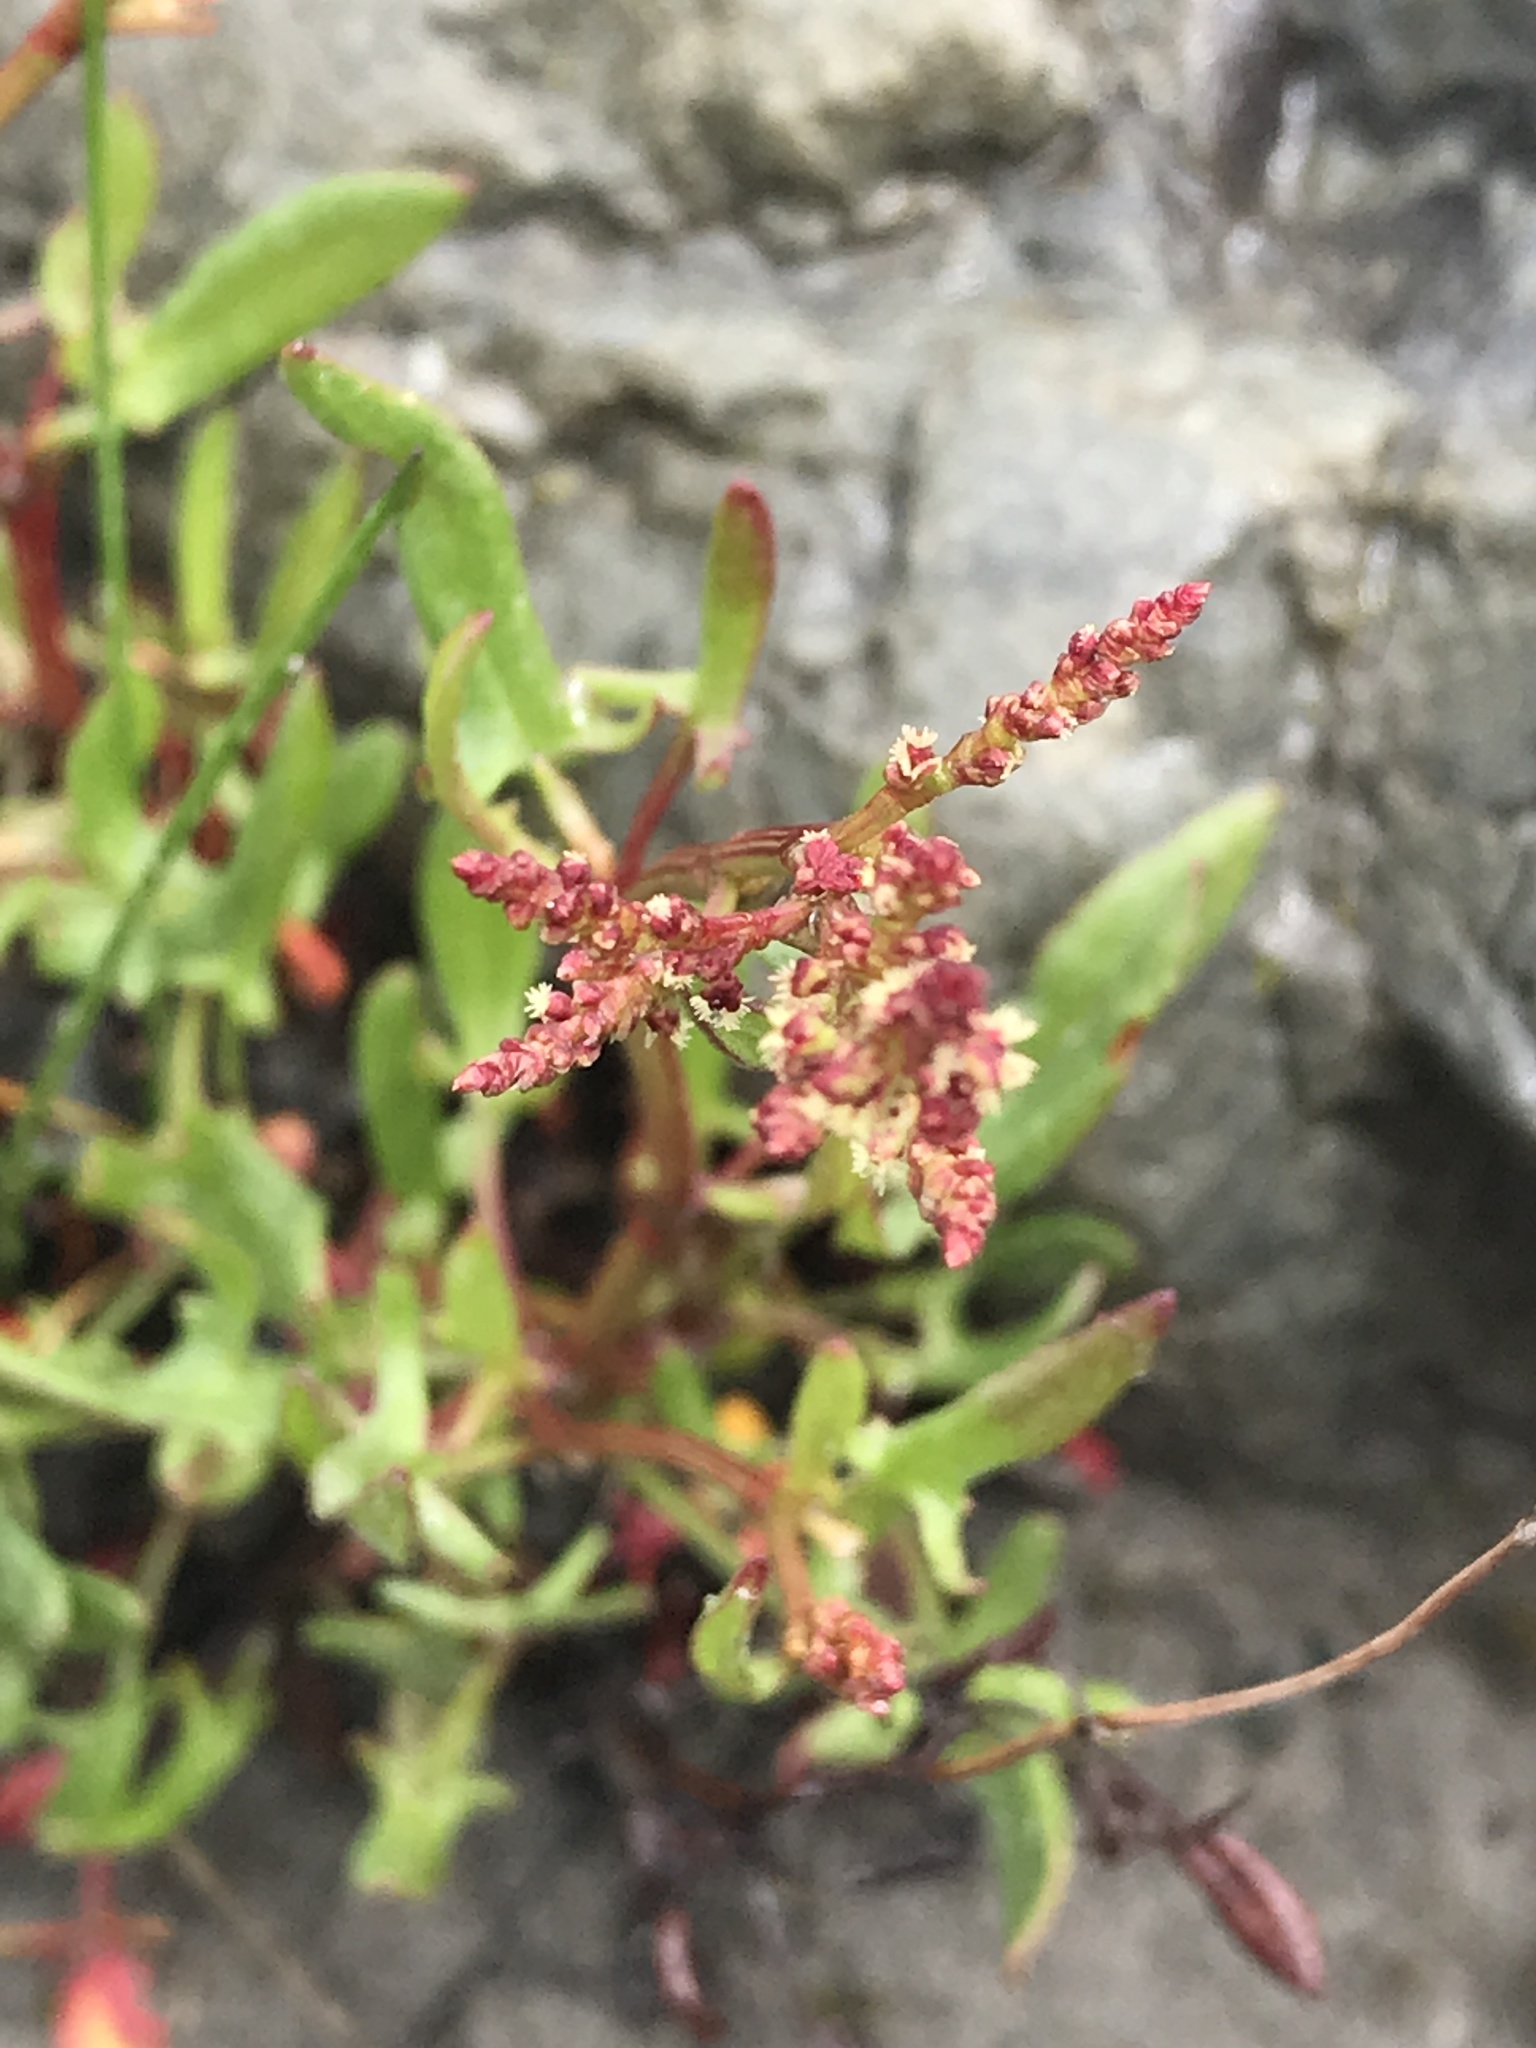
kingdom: Plantae
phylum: Tracheophyta
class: Magnoliopsida
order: Caryophyllales
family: Polygonaceae
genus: Rumex
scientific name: Rumex acetosella
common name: Common sheep sorrel
